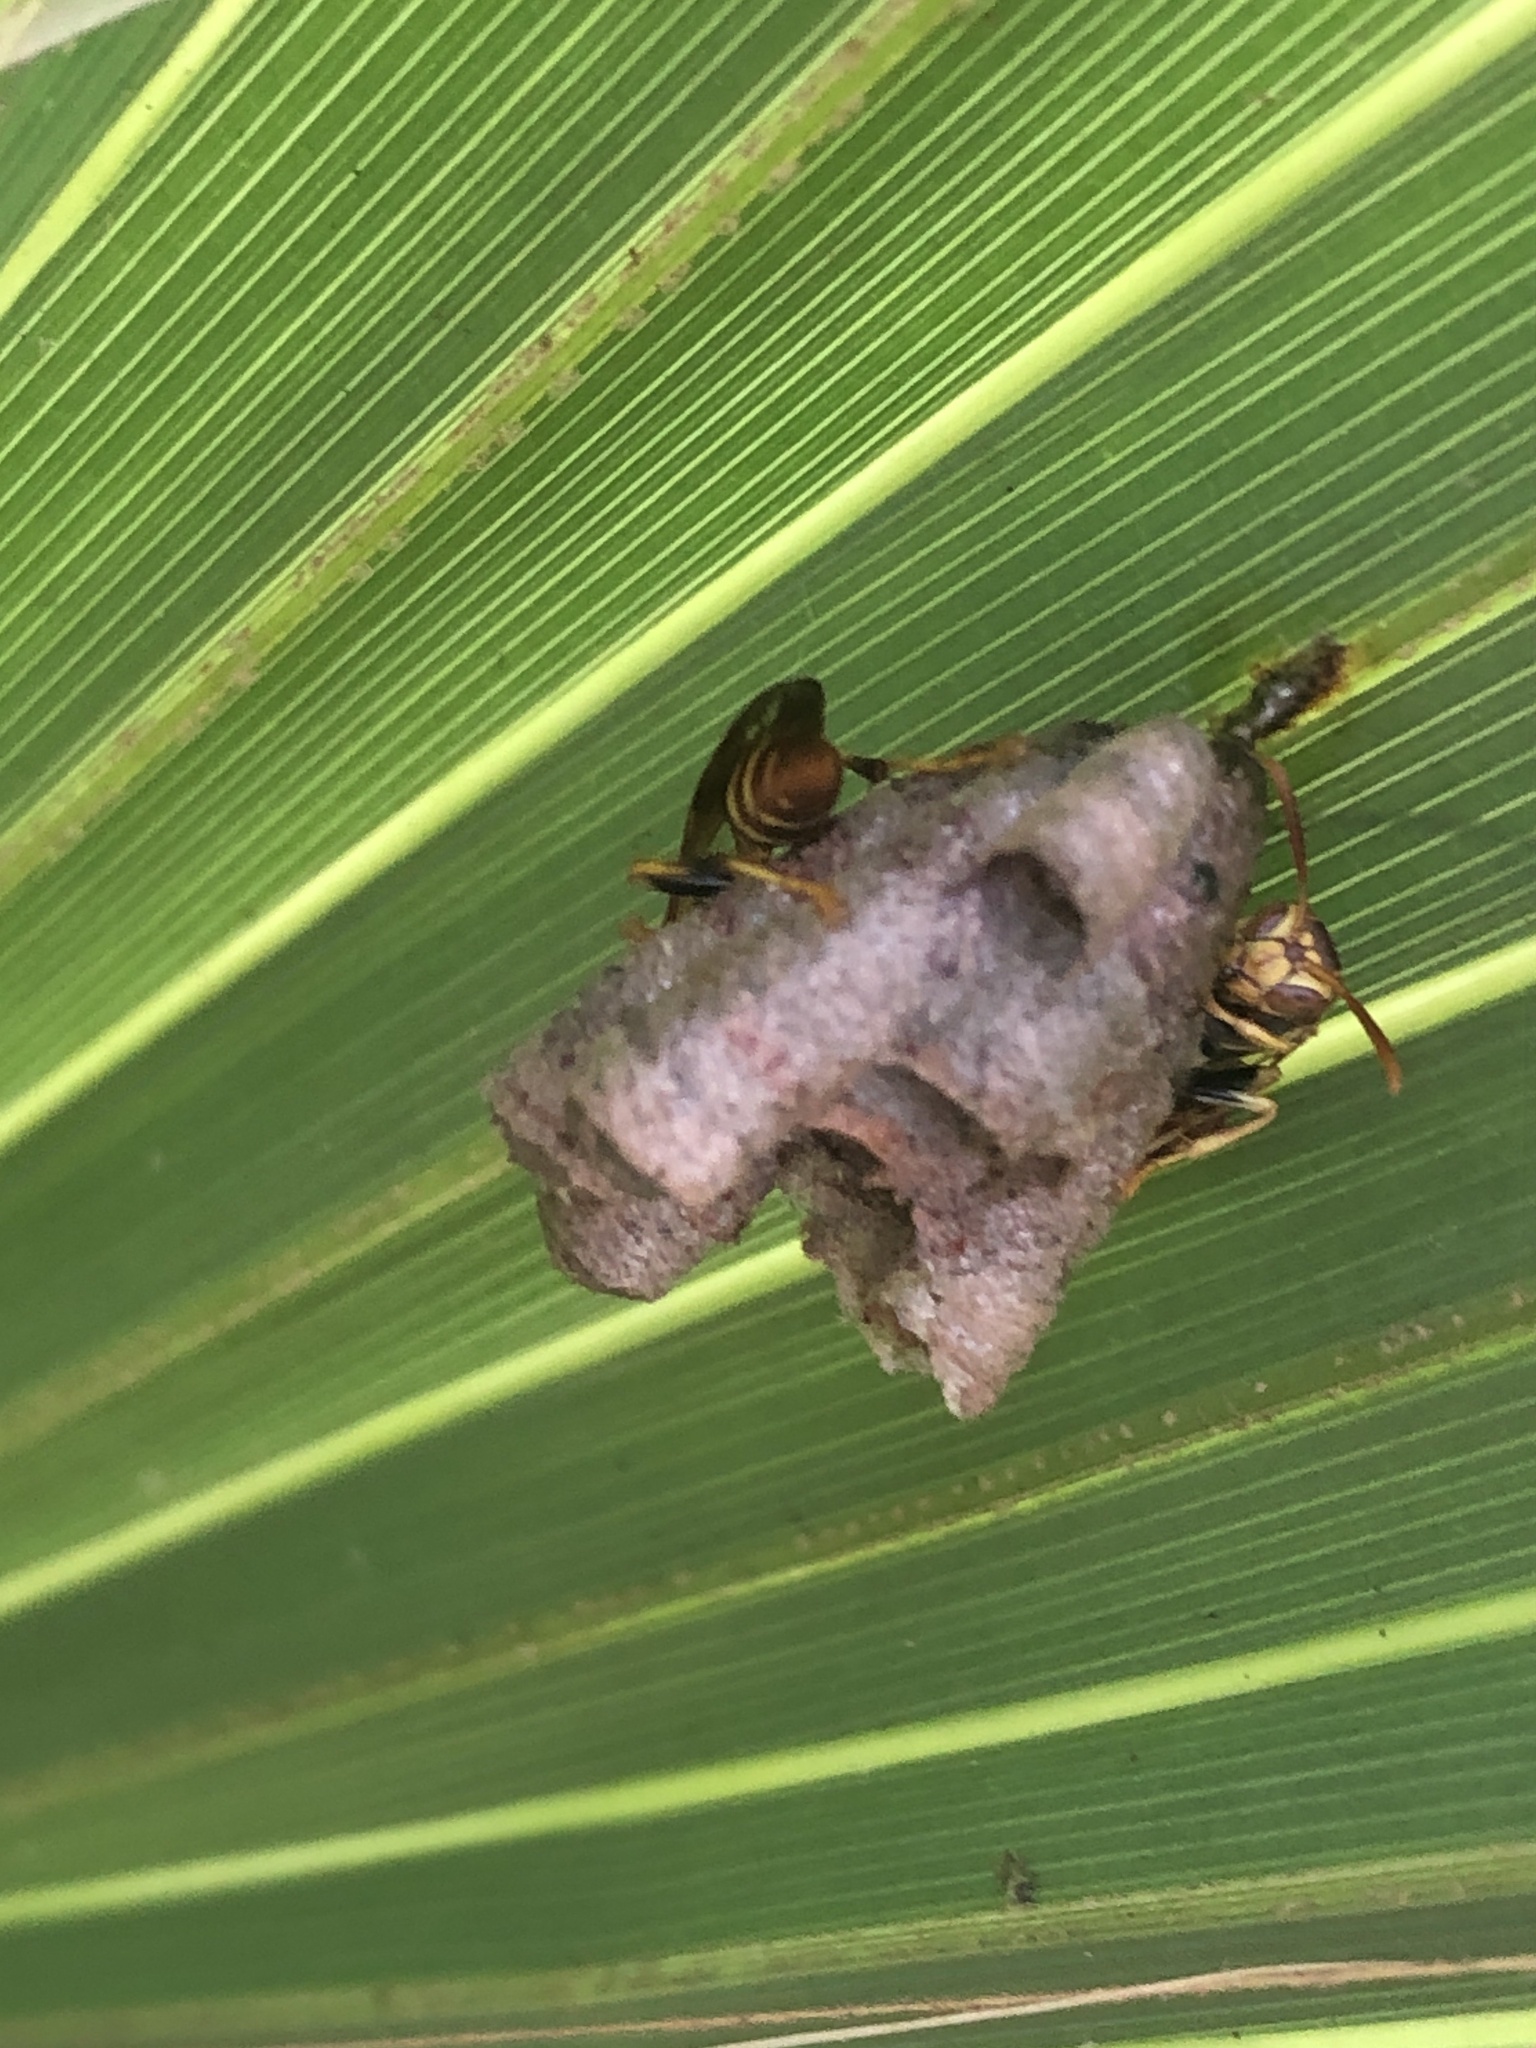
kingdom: Animalia
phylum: Arthropoda
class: Insecta
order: Hymenoptera
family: Vespidae
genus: Mischocyttarus
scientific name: Mischocyttarus mexicanus
